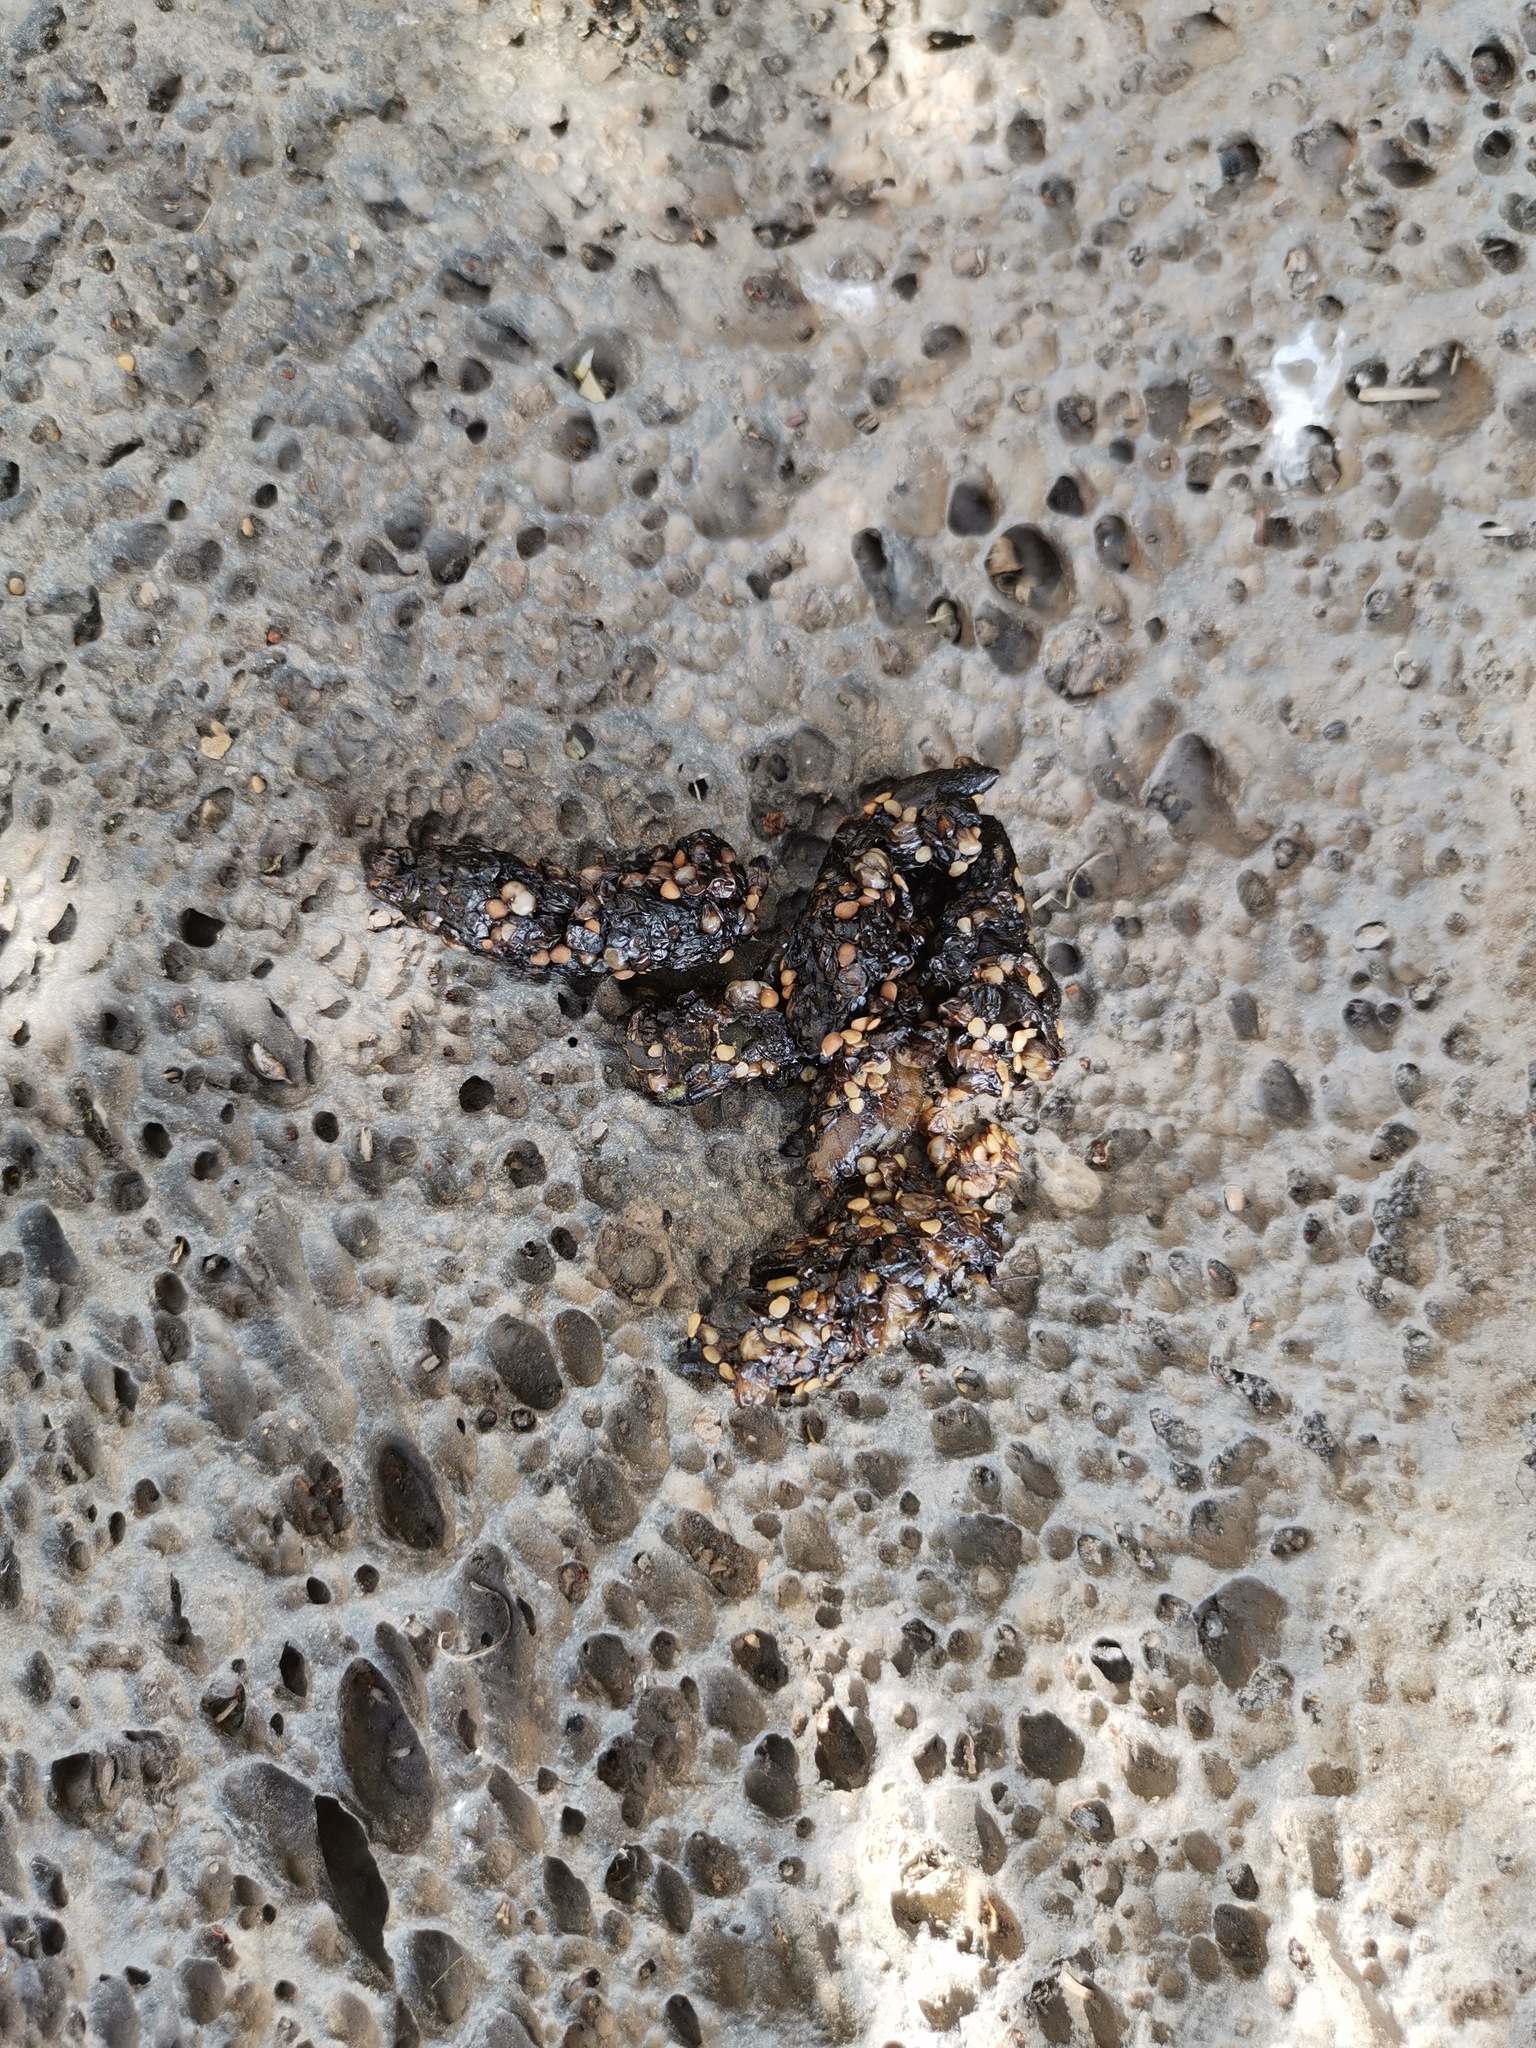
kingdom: Animalia
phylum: Chordata
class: Mammalia
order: Carnivora
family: Procyonidae
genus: Bassariscus
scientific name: Bassariscus astutus
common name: Ringtail
